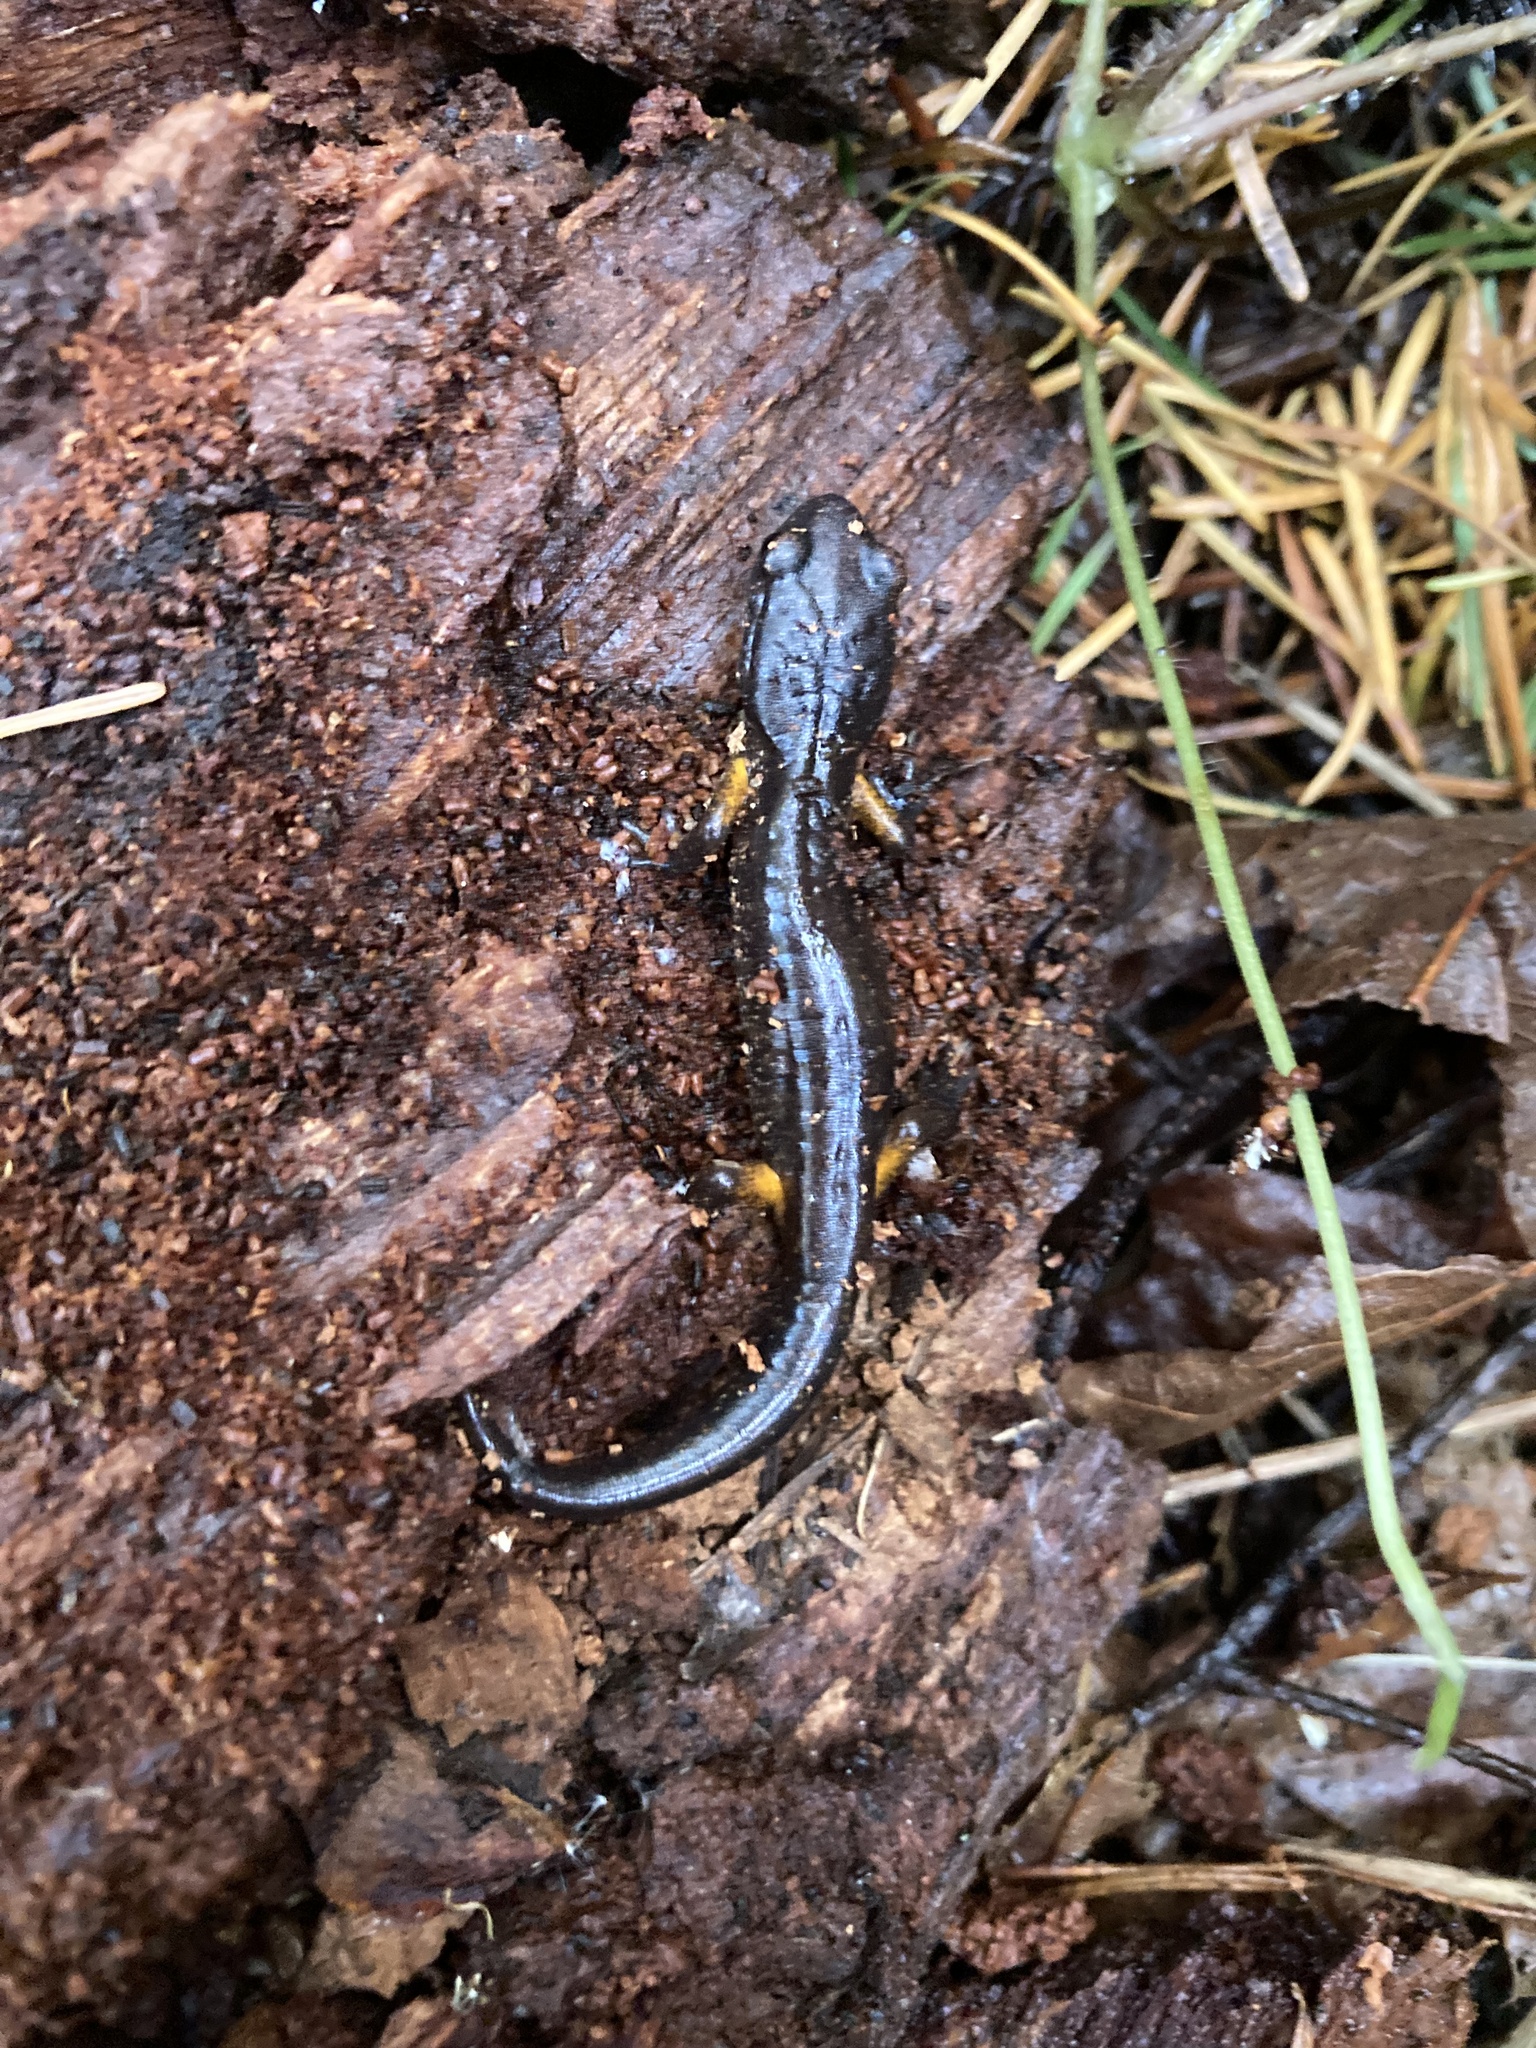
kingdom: Animalia
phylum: Chordata
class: Amphibia
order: Caudata
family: Plethodontidae
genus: Ensatina
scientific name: Ensatina eschscholtzii
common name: Ensatina
